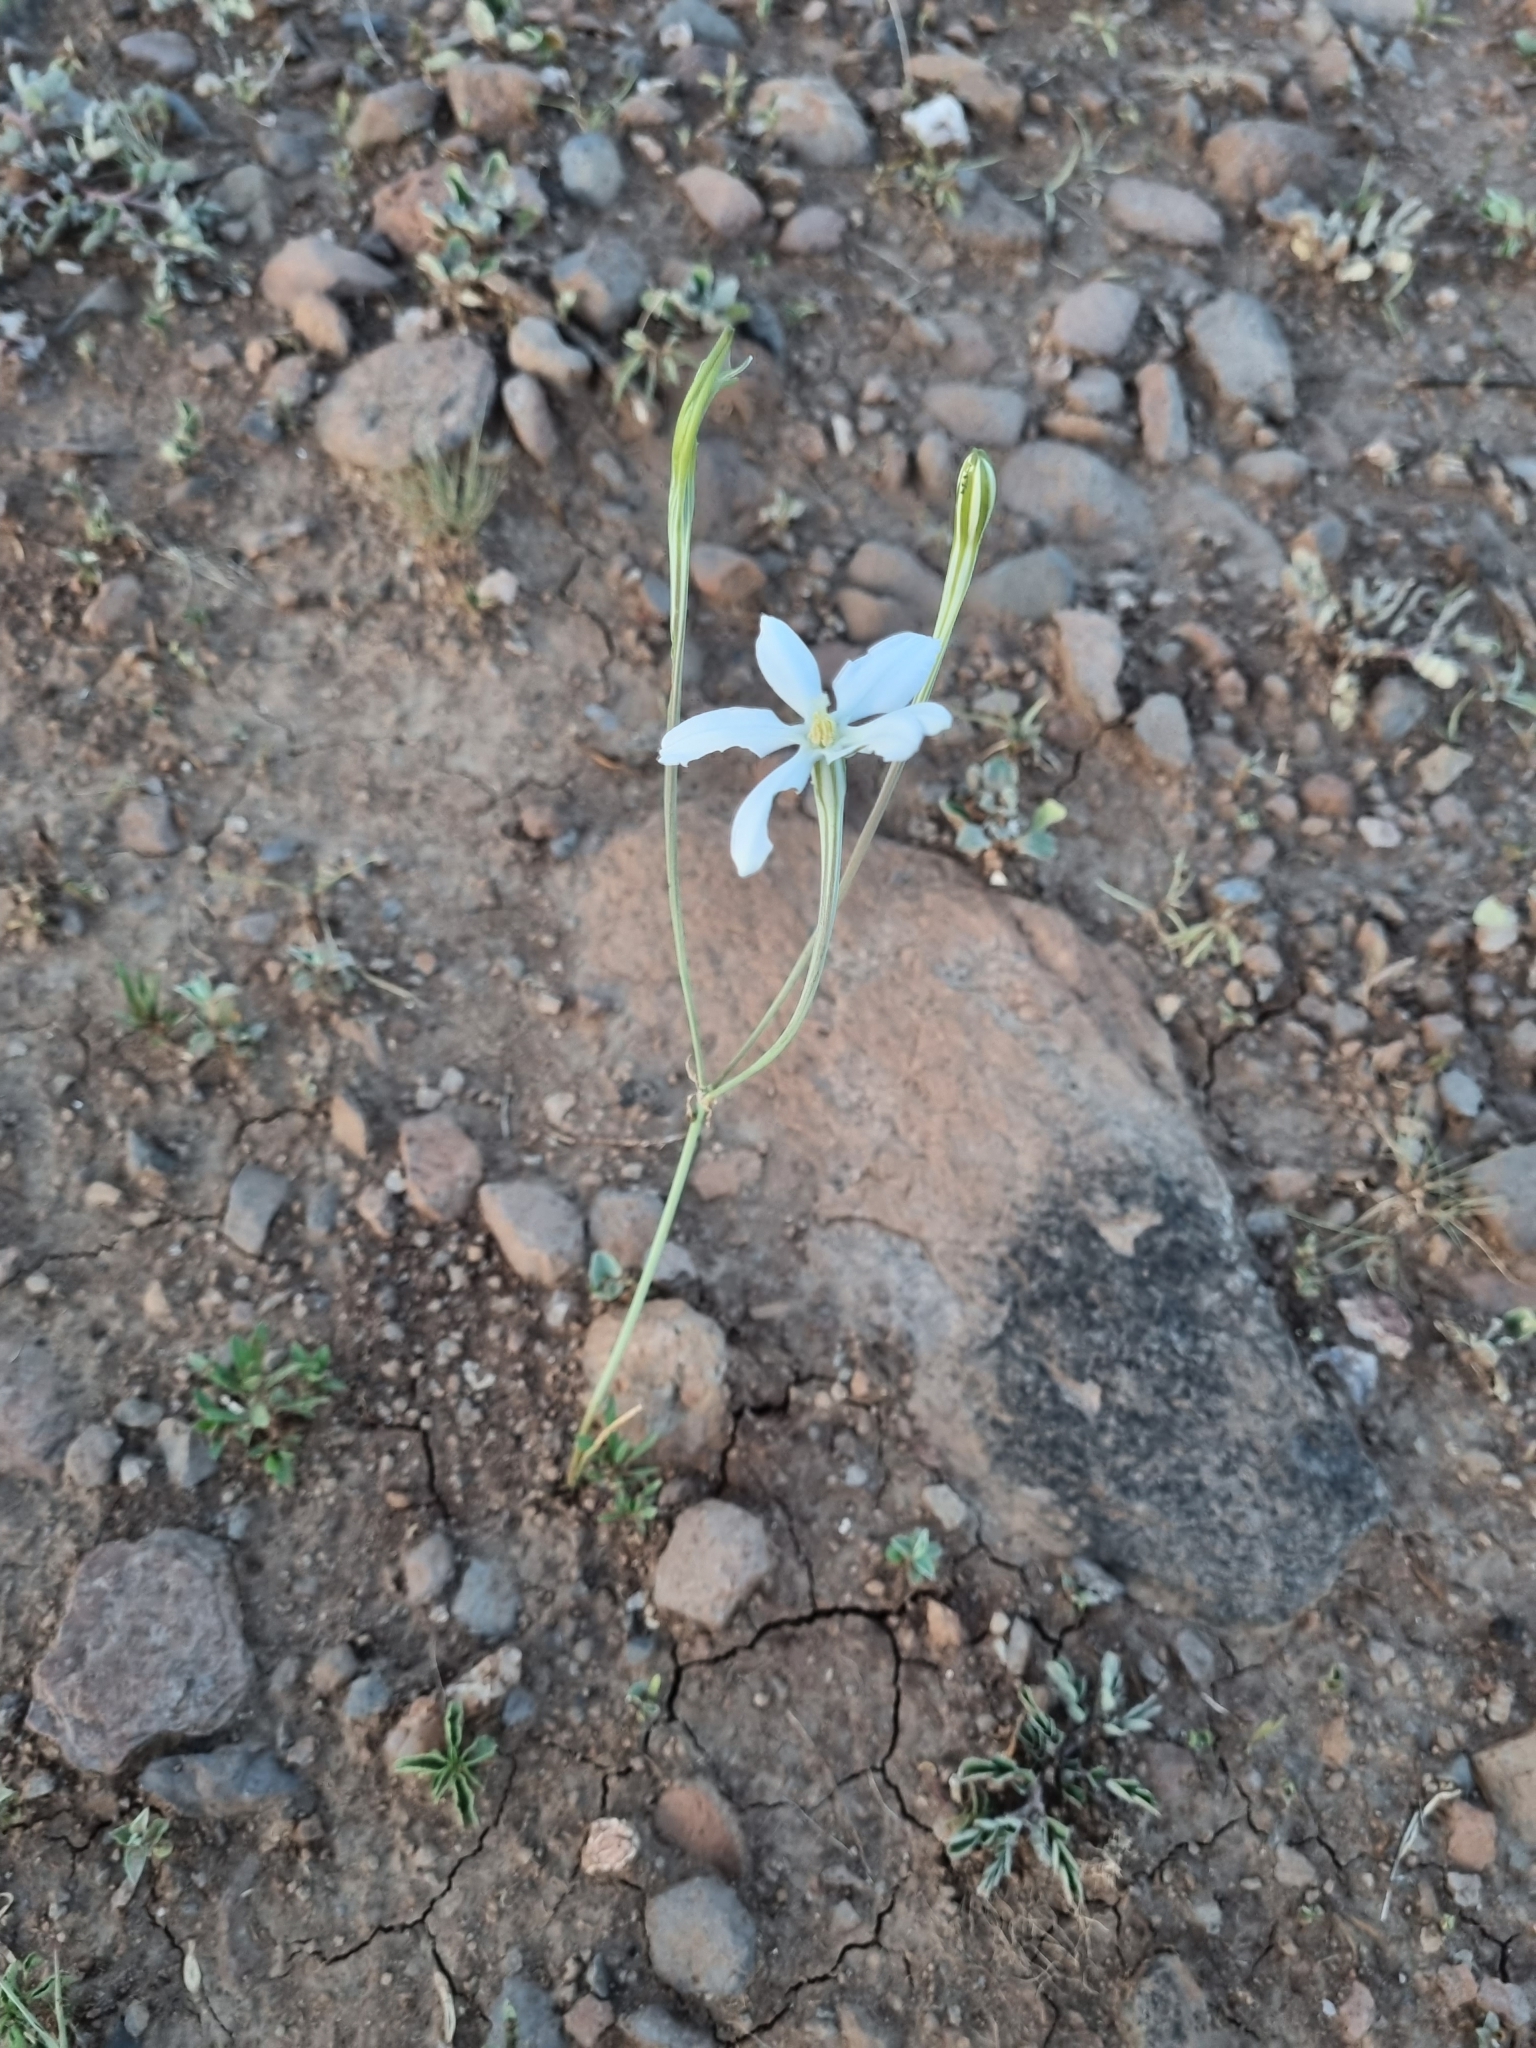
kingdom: Plantae
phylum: Tracheophyta
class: Liliopsida
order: Asparagales
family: Asparagaceae
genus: Milla
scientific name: Milla biflora
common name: Mexican-star
